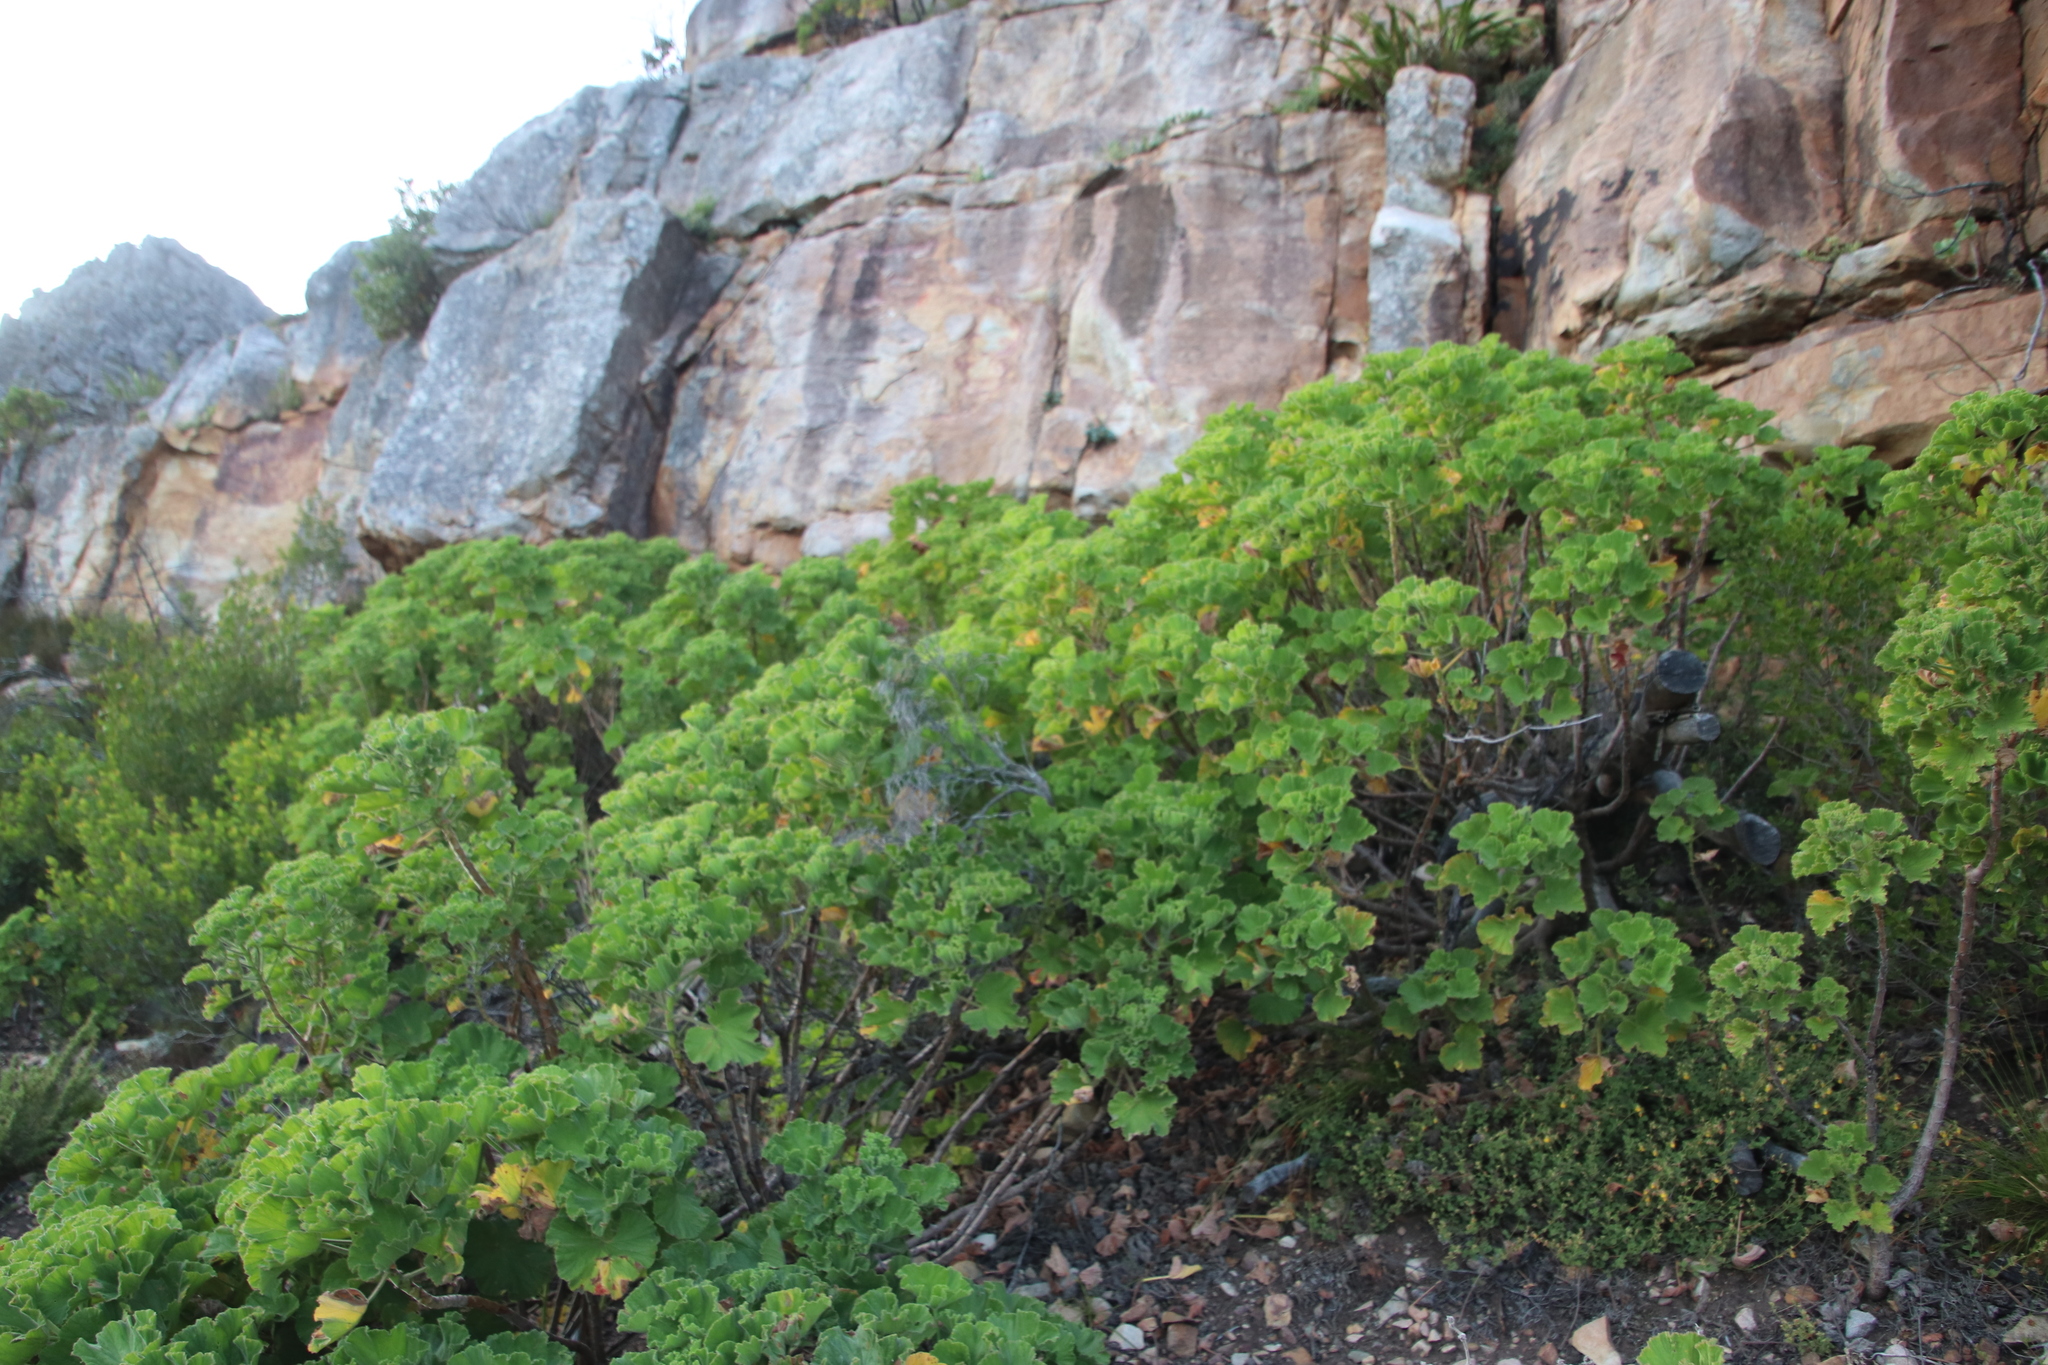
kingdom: Plantae
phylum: Tracheophyta
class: Magnoliopsida
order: Geraniales
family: Geraniaceae
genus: Pelargonium
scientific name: Pelargonium cucullatum
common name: Tree pelargonium
